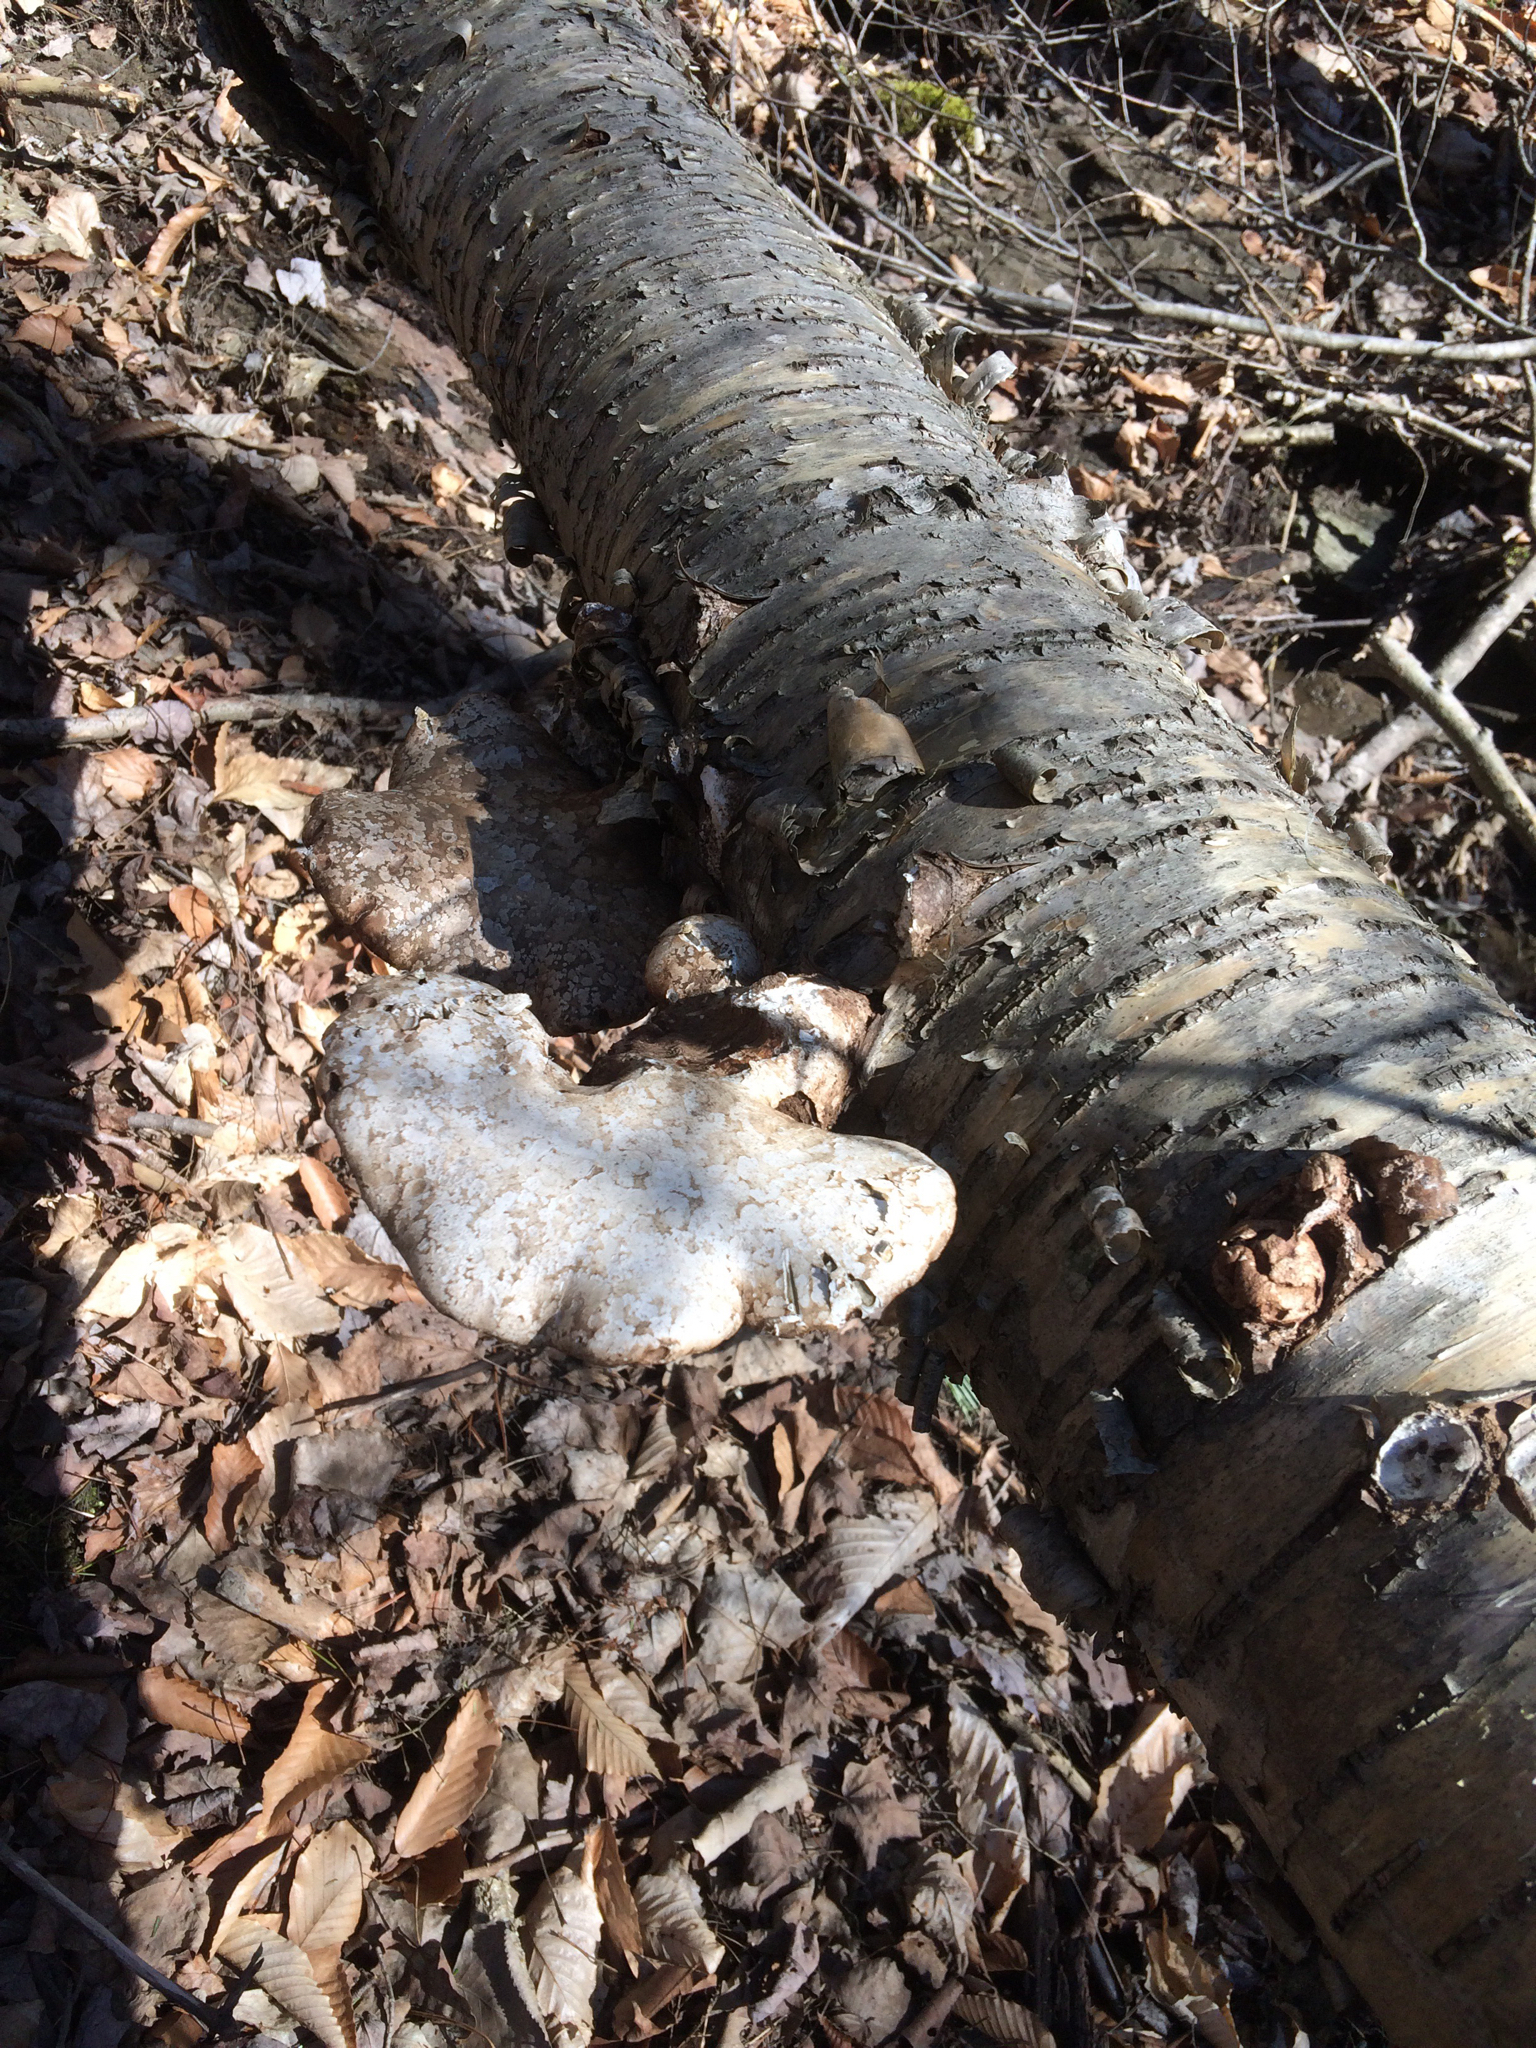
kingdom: Fungi
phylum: Basidiomycota
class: Agaricomycetes
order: Polyporales
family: Fomitopsidaceae
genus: Fomitopsis
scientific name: Fomitopsis betulina
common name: Birch polypore
